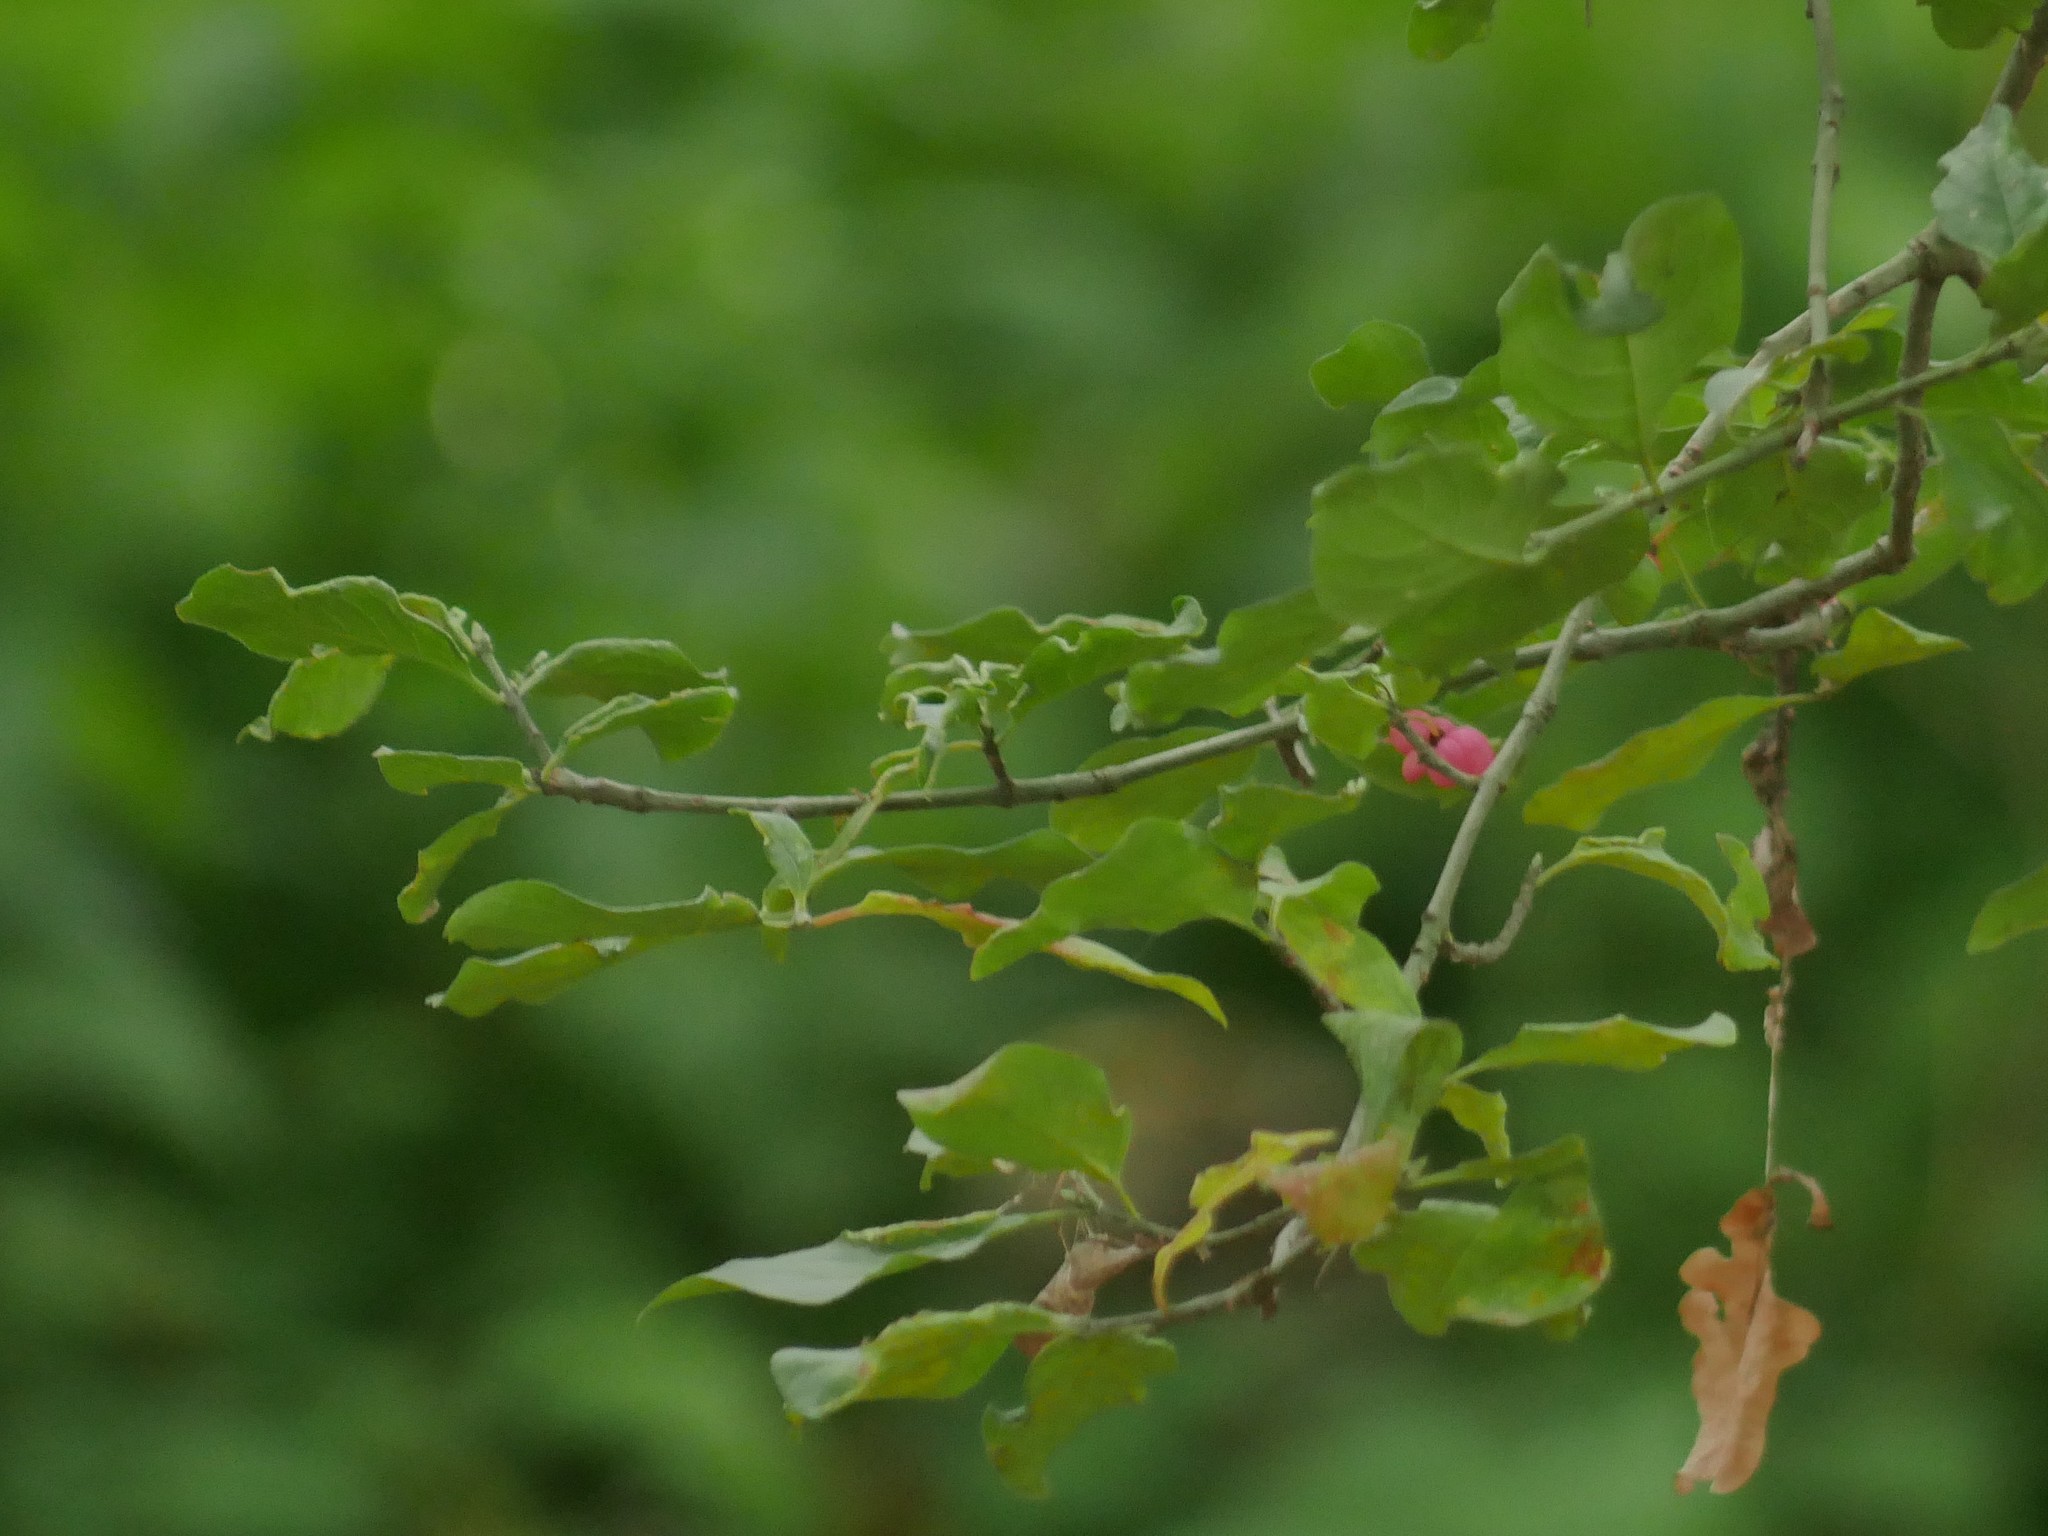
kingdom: Plantae
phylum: Tracheophyta
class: Magnoliopsida
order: Celastrales
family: Celastraceae
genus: Euonymus
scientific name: Euonymus europaeus
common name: Spindle
